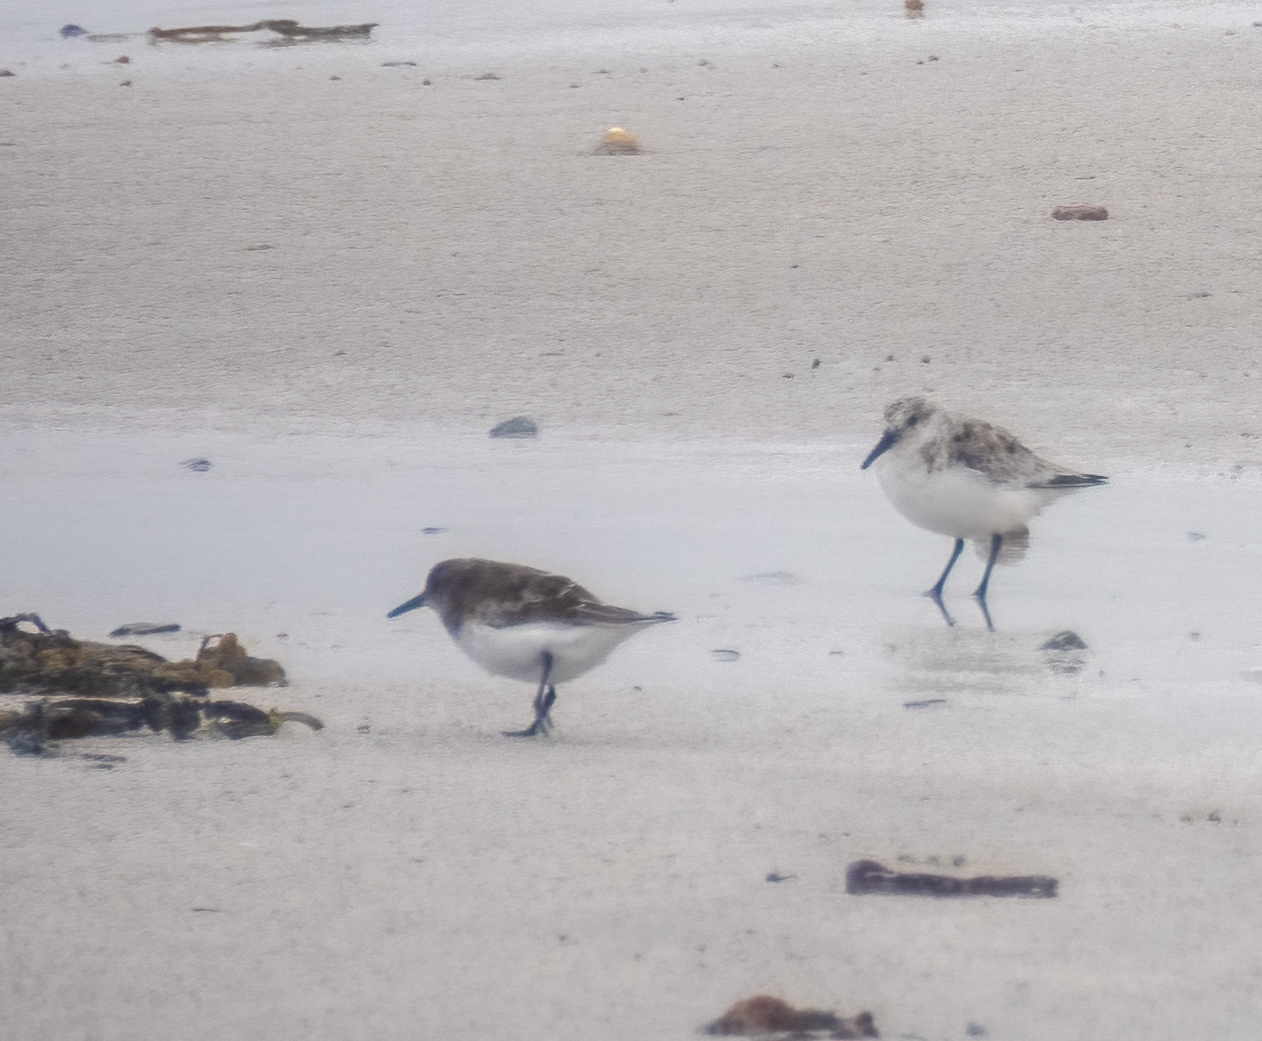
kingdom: Animalia
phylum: Chordata
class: Aves
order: Charadriiformes
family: Scolopacidae
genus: Calidris
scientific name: Calidris alba
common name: Sanderling
